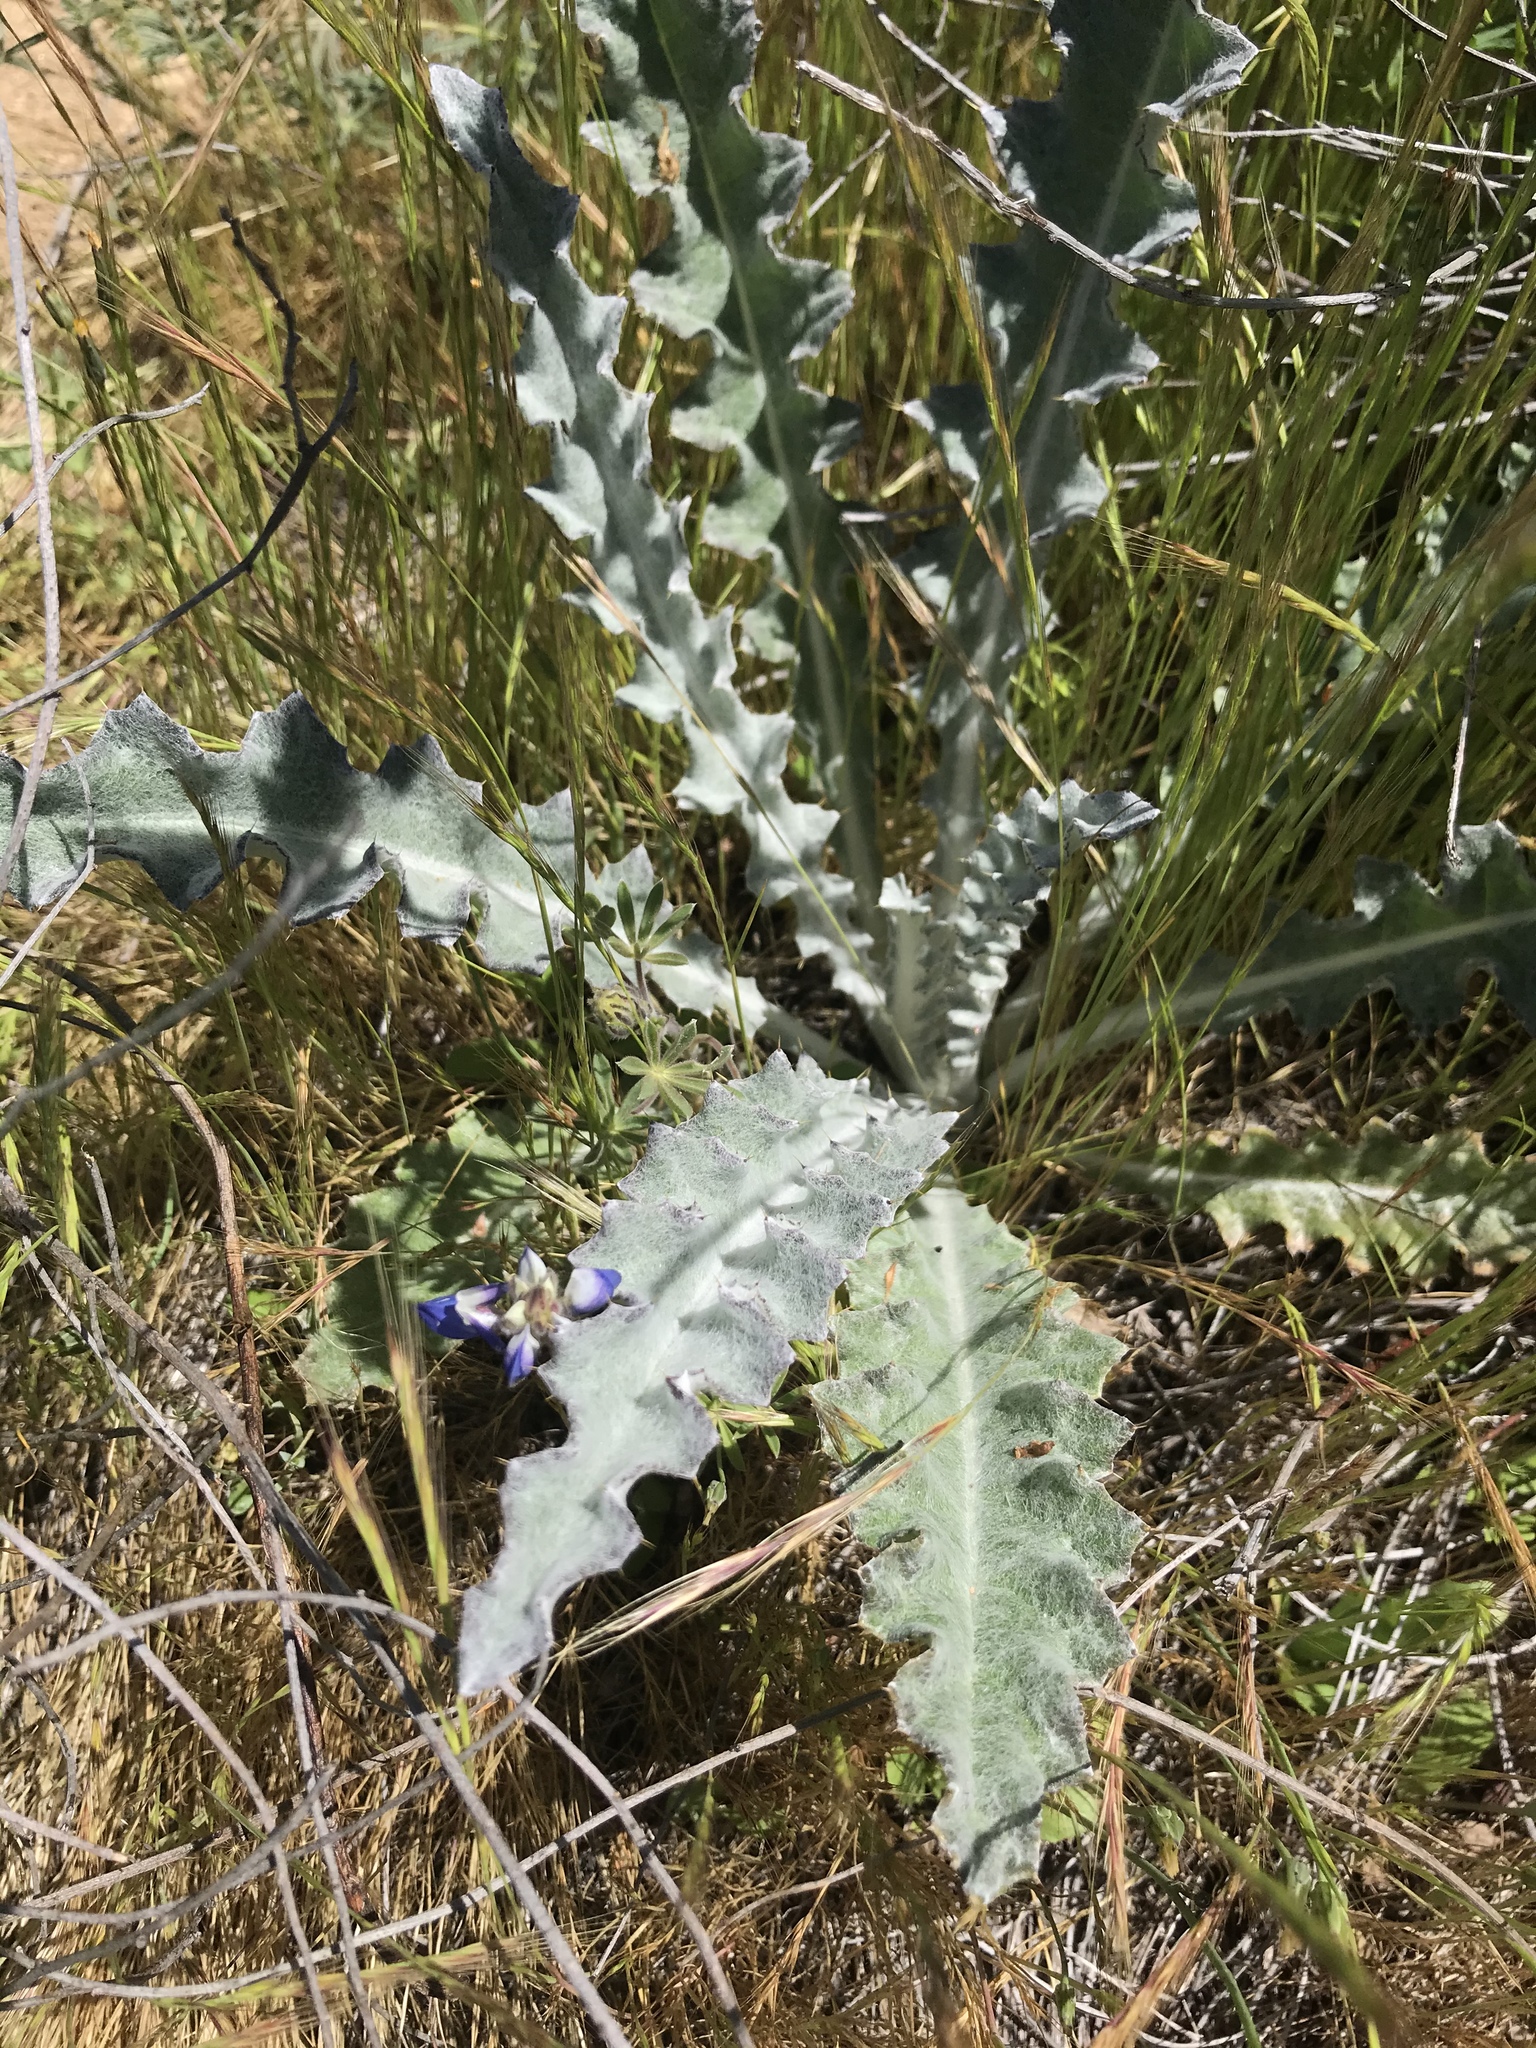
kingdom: Plantae
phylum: Tracheophyta
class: Magnoliopsida
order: Asterales
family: Asteraceae
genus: Cirsium
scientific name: Cirsium occidentale
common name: Western thistle
